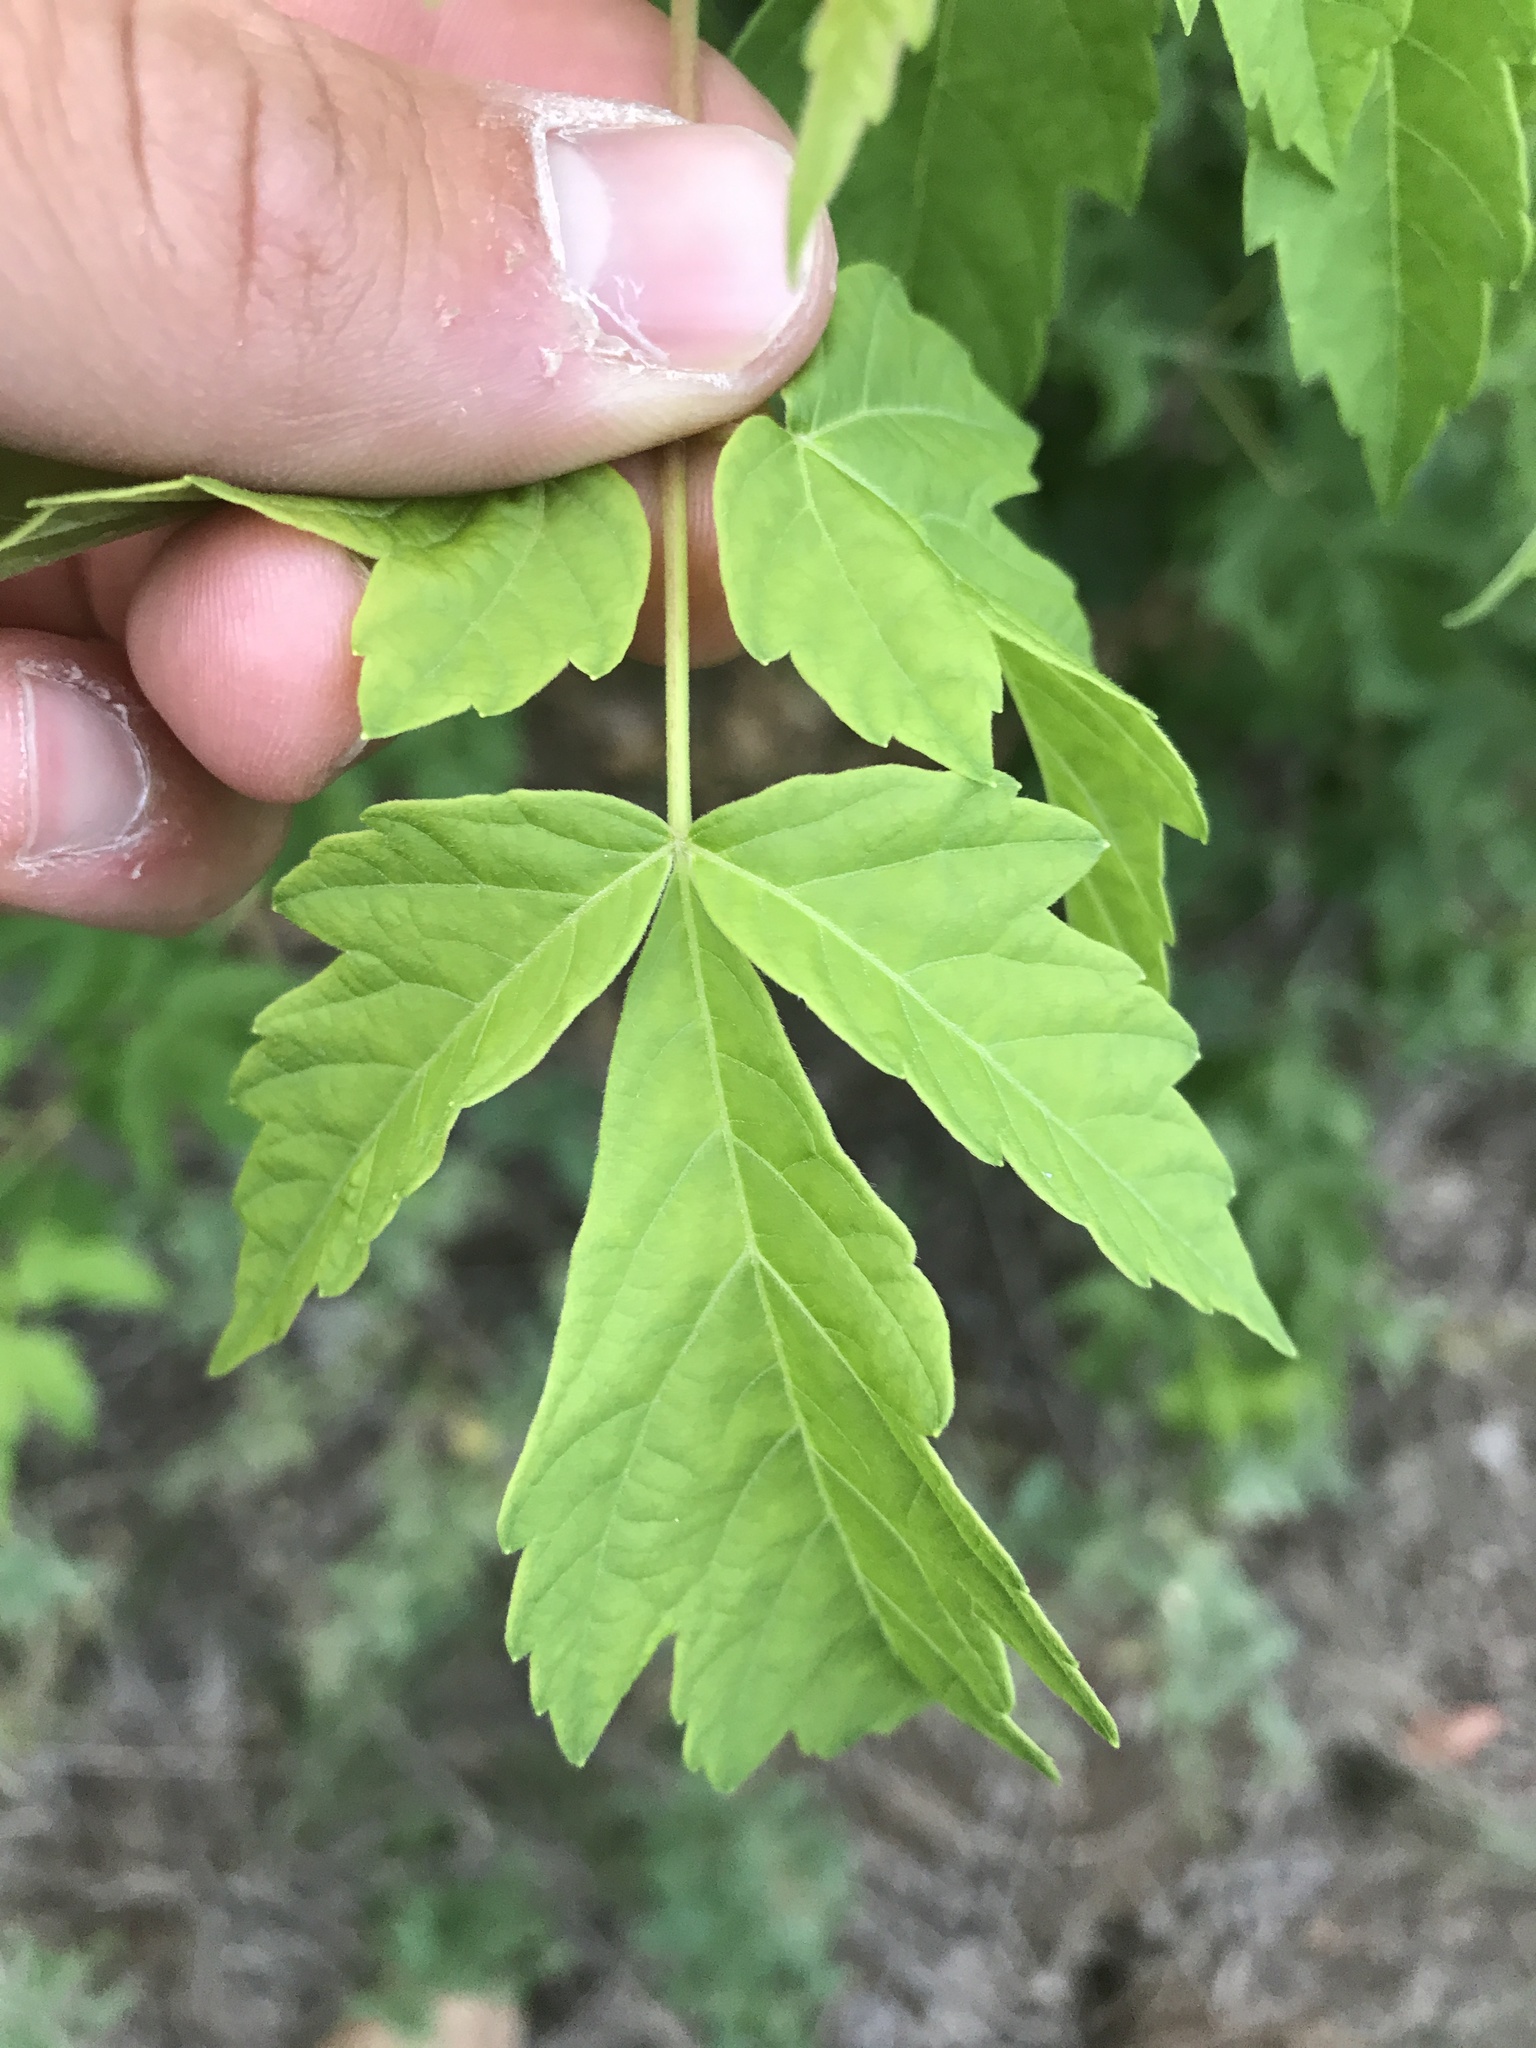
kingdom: Plantae
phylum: Tracheophyta
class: Magnoliopsida
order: Sapindales
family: Sapindaceae
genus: Acer
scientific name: Acer negundo
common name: Ashleaf maple
